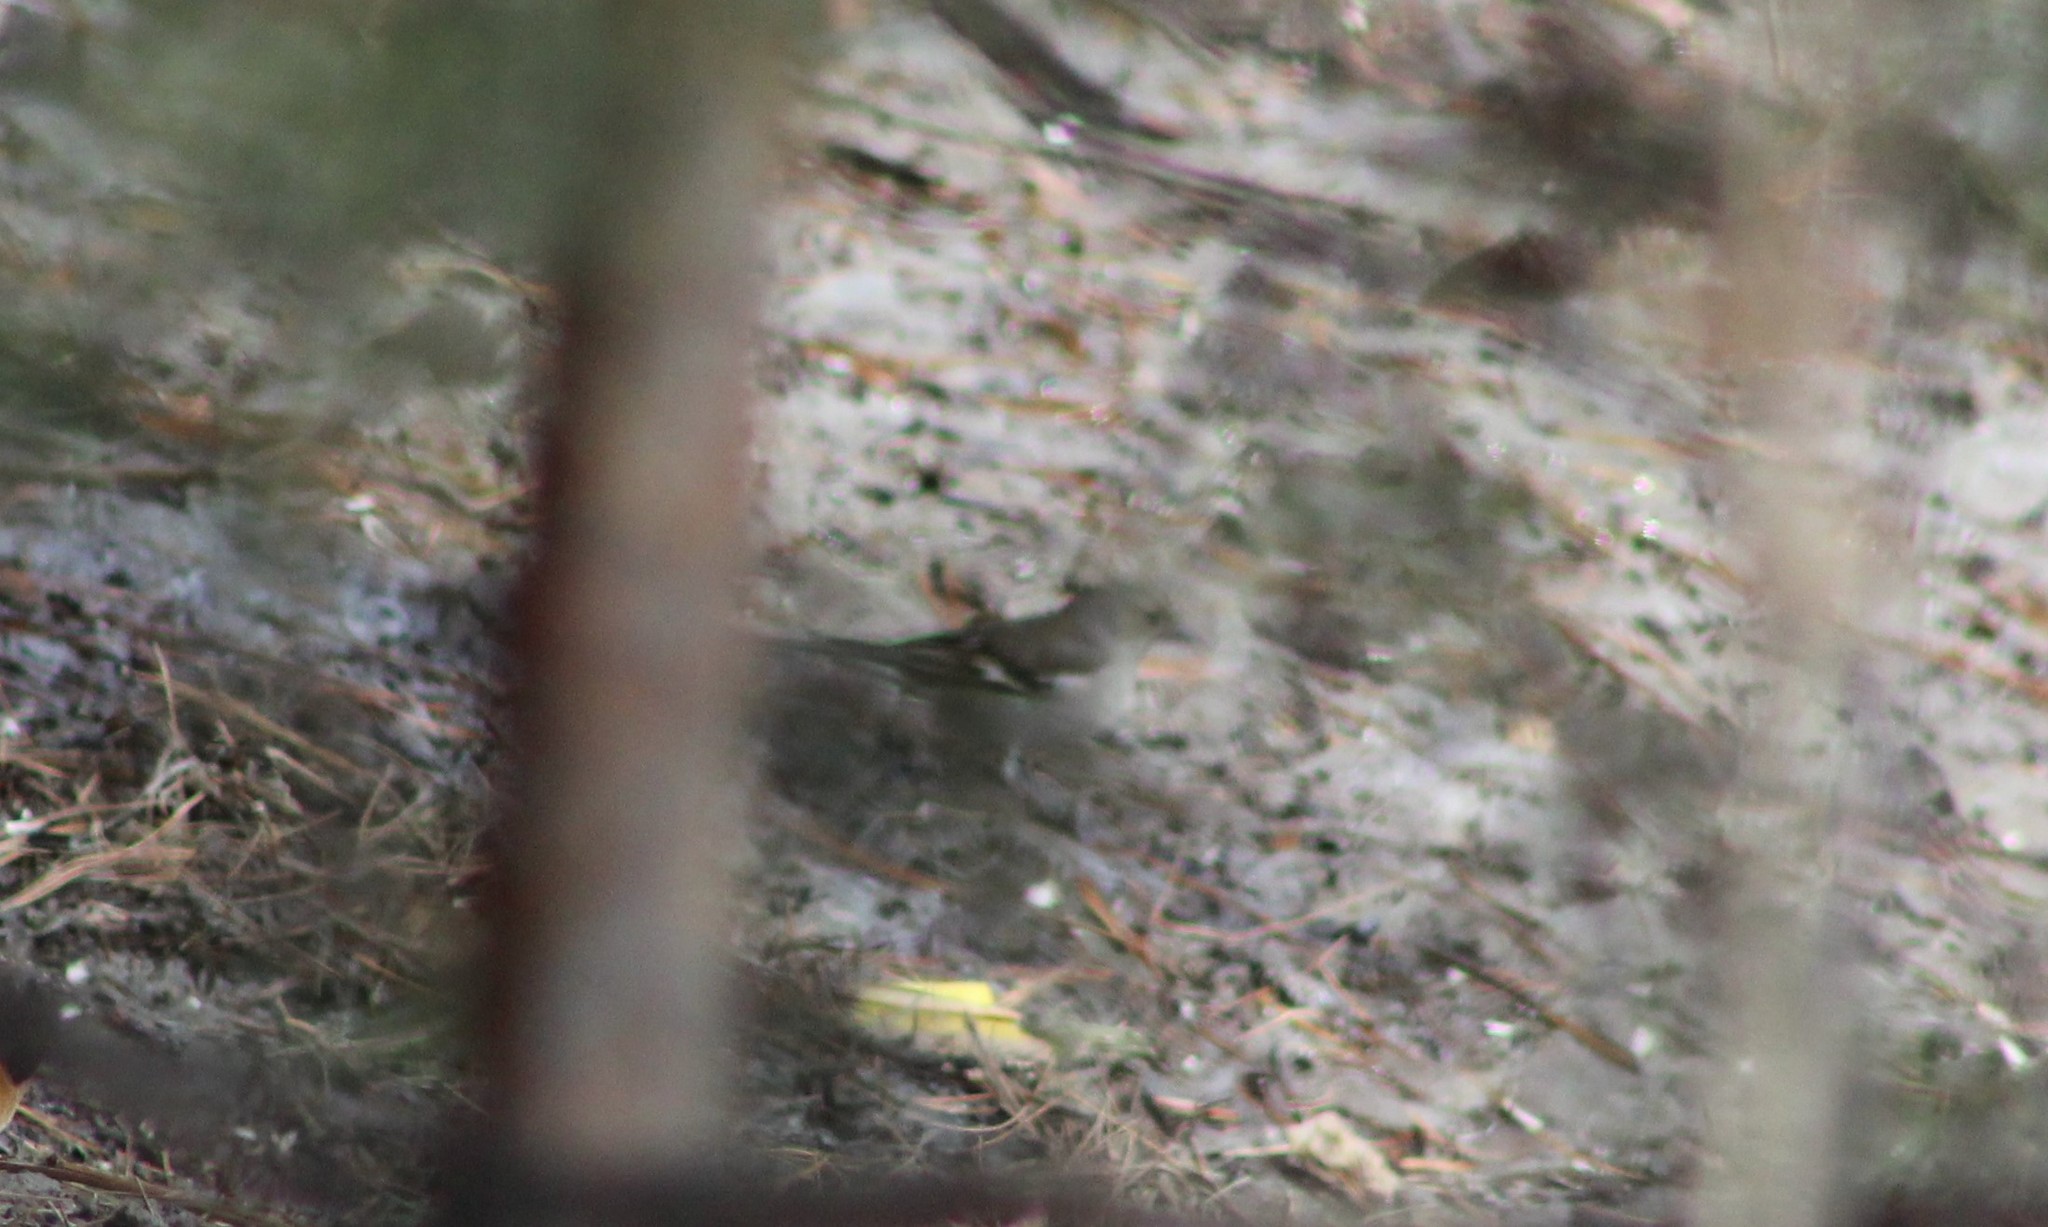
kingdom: Animalia
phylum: Chordata
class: Aves
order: Passeriformes
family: Fringillidae
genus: Fringilla
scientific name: Fringilla coelebs
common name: Common chaffinch
